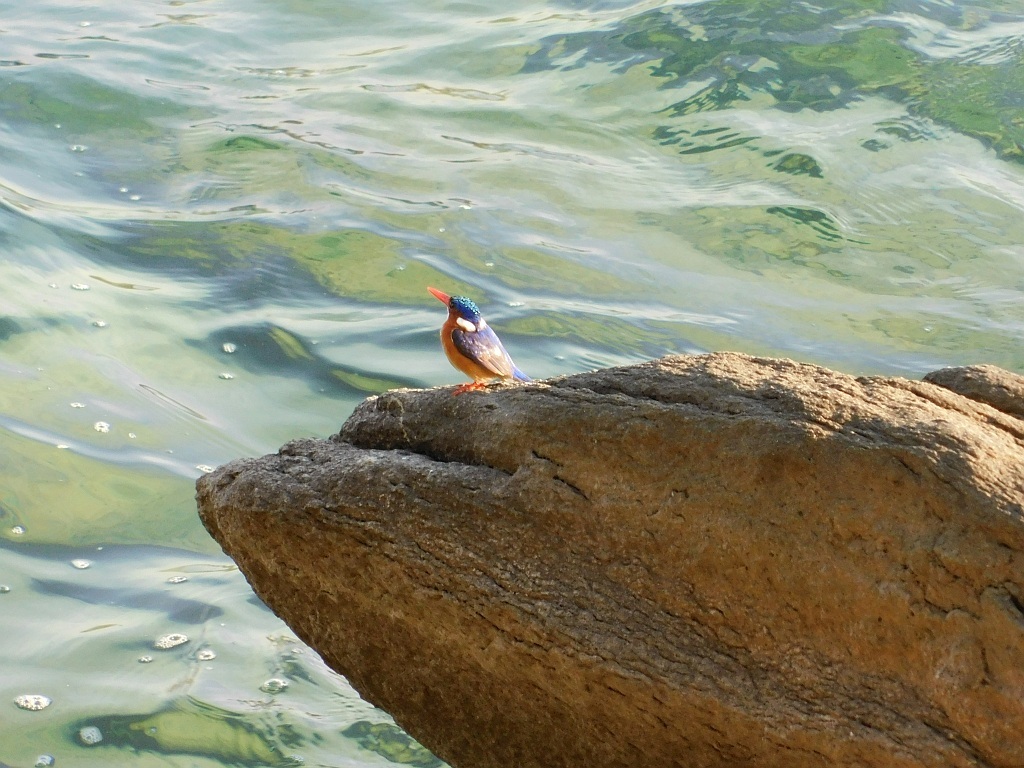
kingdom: Animalia
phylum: Chordata
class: Aves
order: Coraciiformes
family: Alcedinidae
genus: Corythornis
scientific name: Corythornis cristatus
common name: Malachite kingfisher
